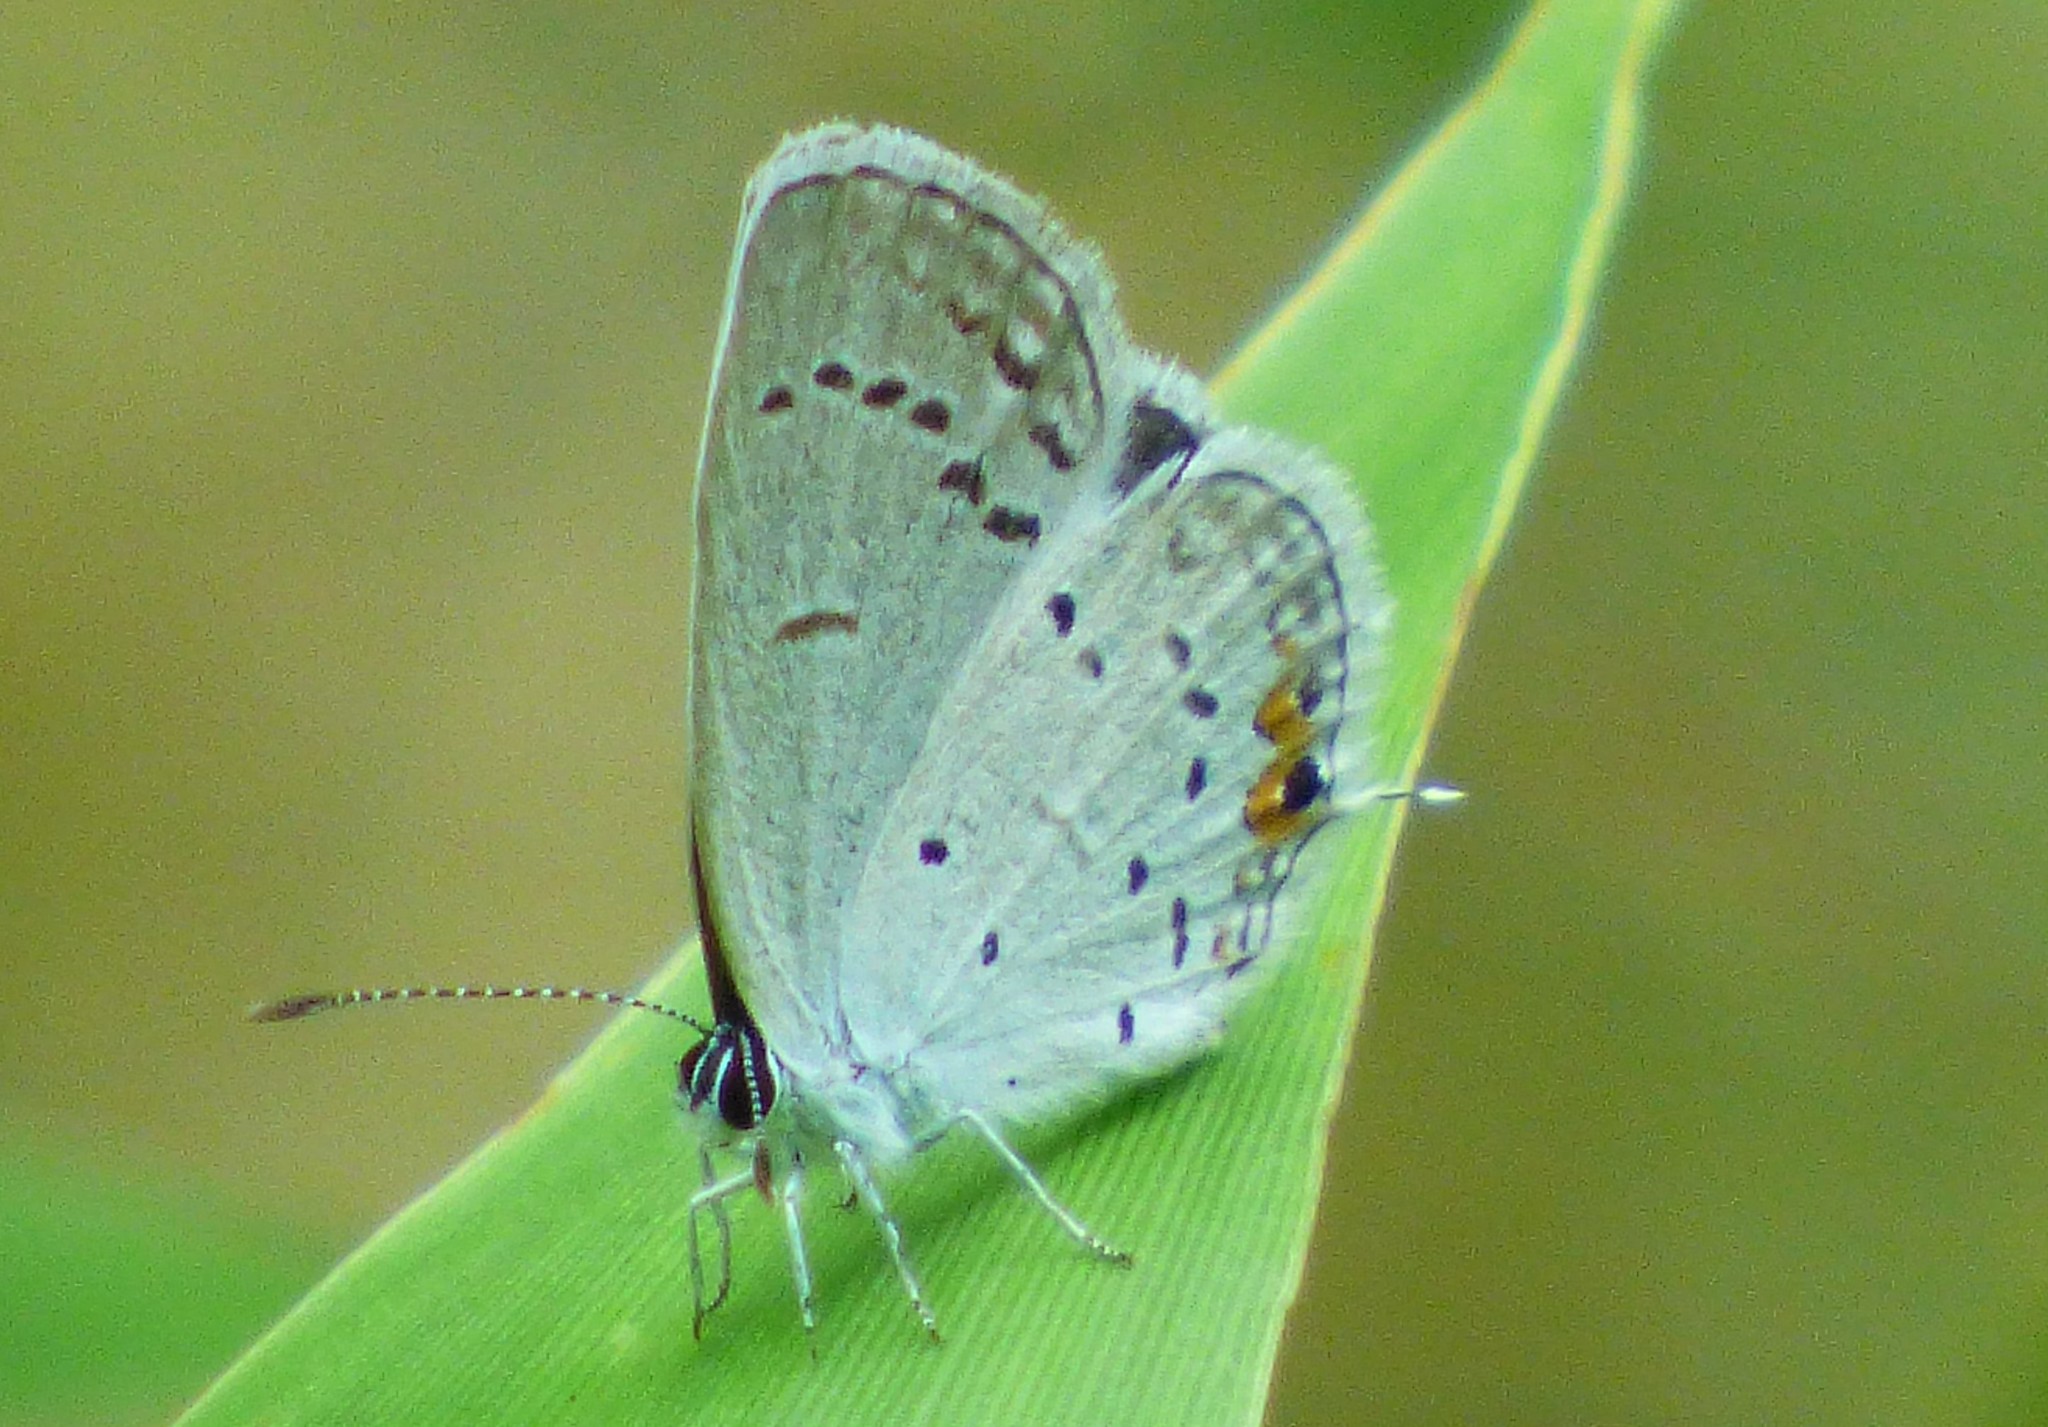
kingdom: Animalia
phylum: Arthropoda
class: Insecta
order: Lepidoptera
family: Lycaenidae
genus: Elkalyce
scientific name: Elkalyce comyntas
